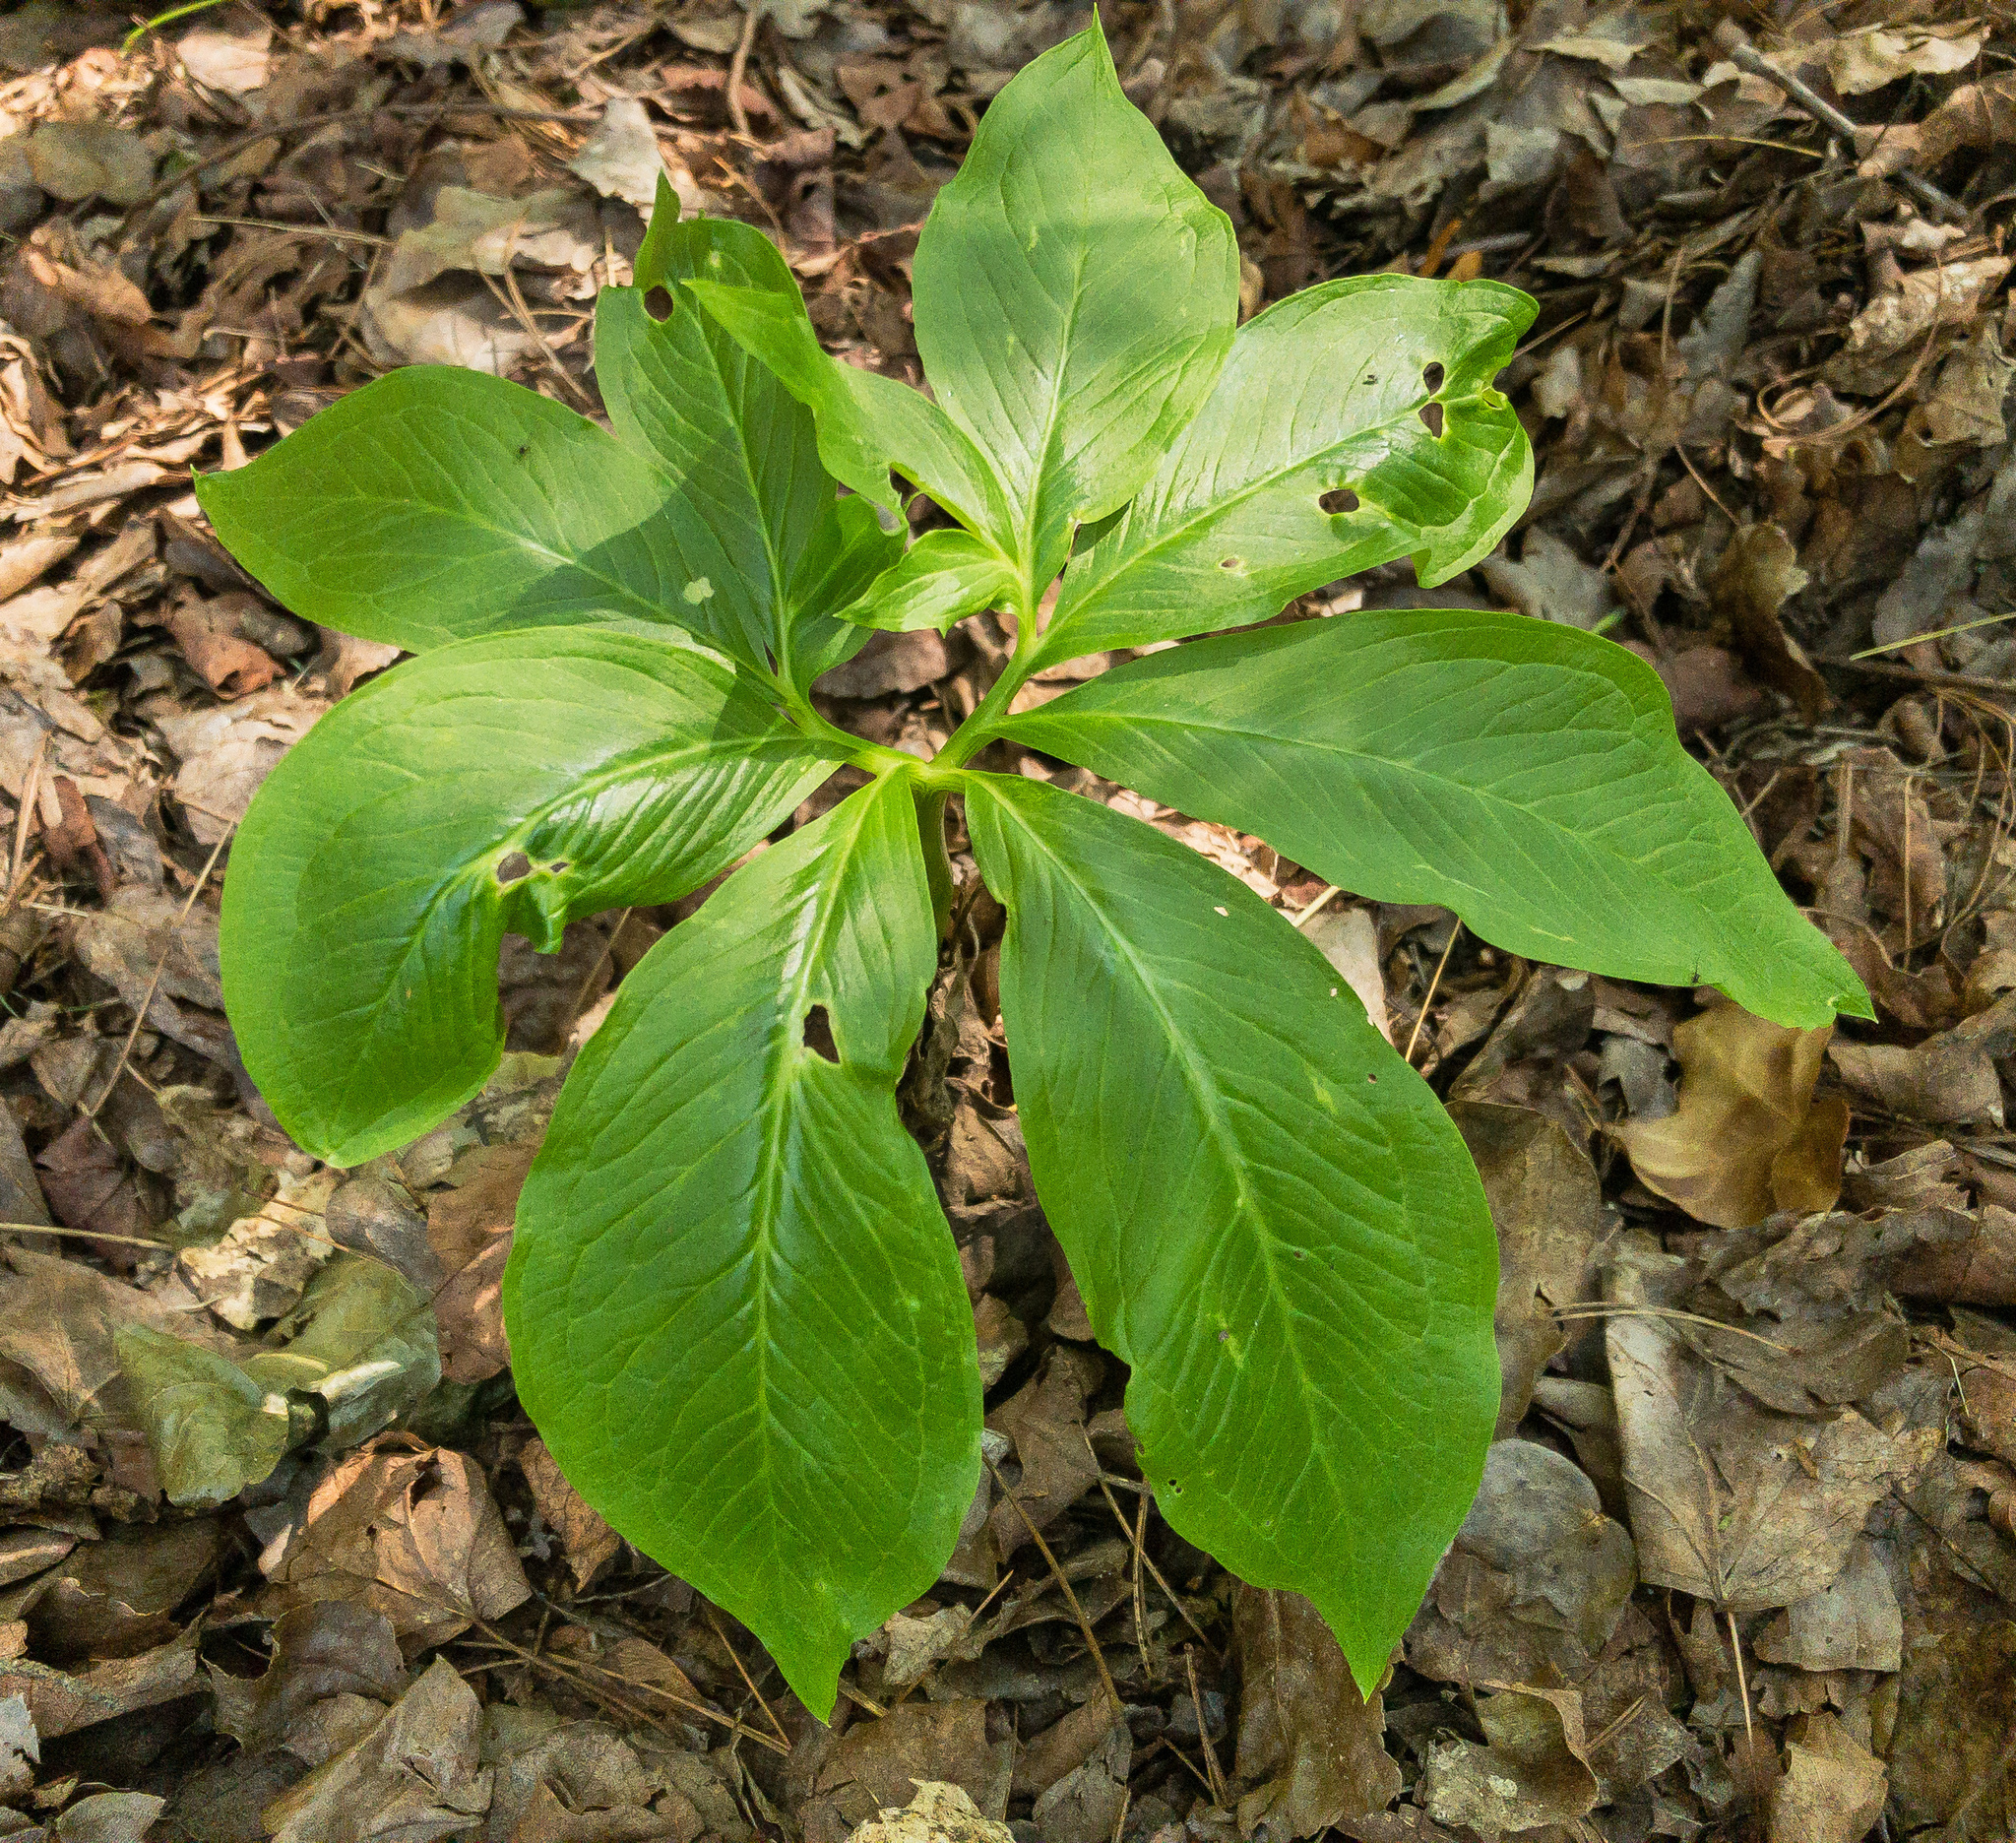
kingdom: Plantae
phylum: Tracheophyta
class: Liliopsida
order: Alismatales
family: Araceae
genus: Arisaema
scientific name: Arisaema dracontium
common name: Dragon-arum
